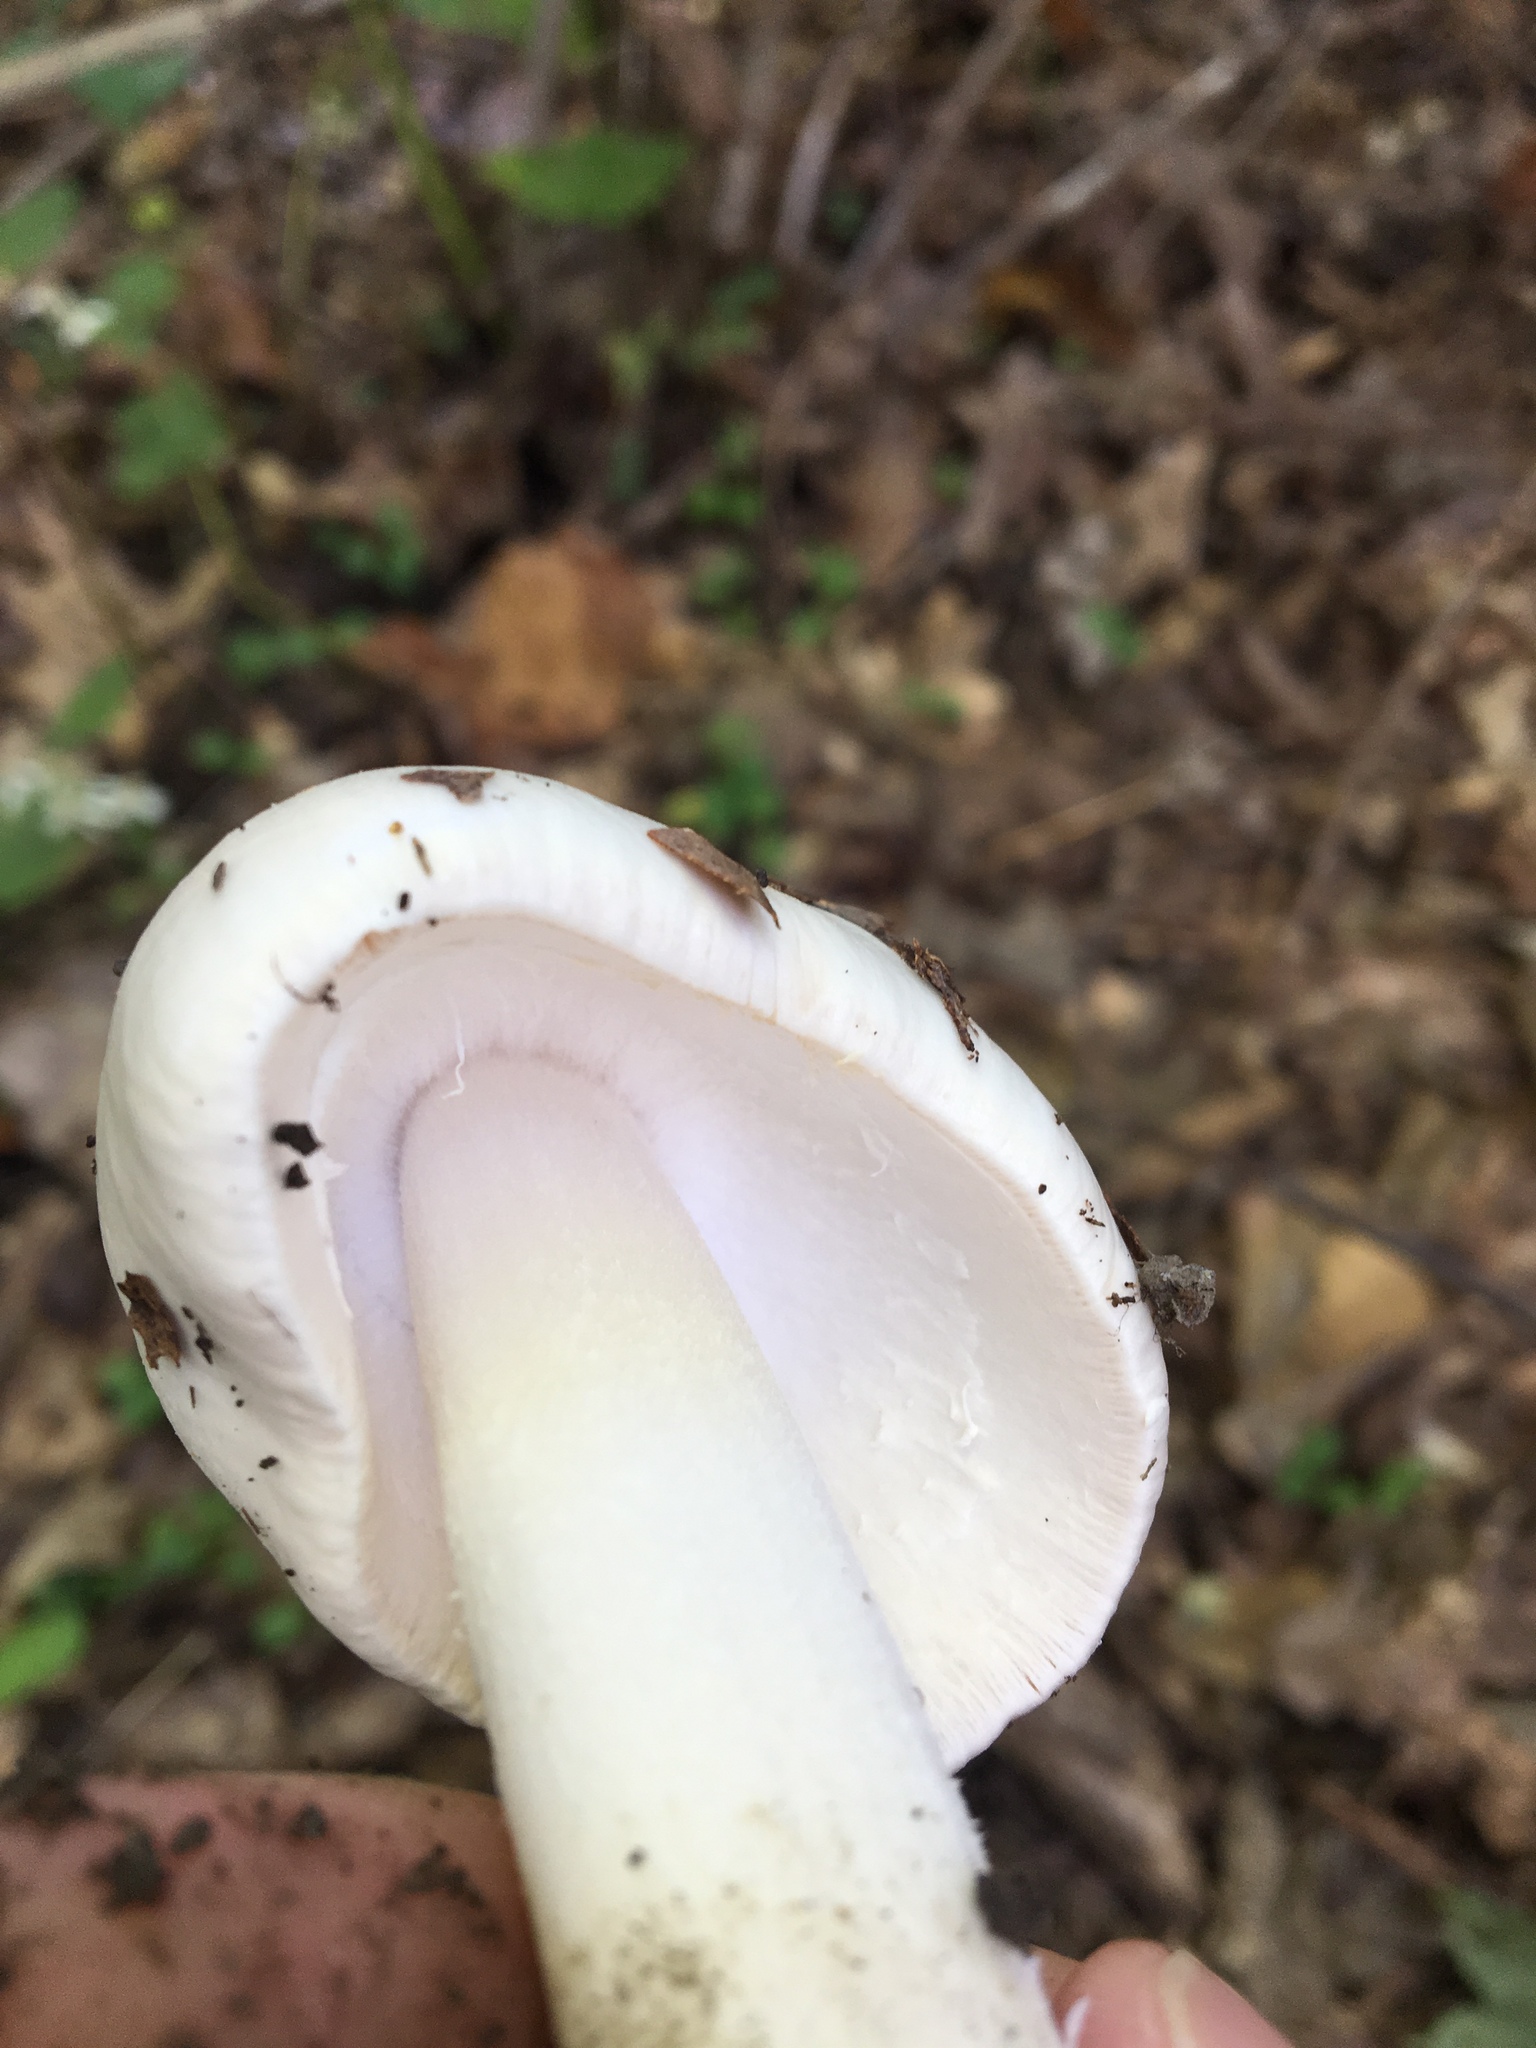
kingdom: Fungi
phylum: Basidiomycota
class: Agaricomycetes
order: Agaricales
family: Amanitaceae
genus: Amanita
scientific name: Amanita bisporigera
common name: Eastern north american destroying angel
